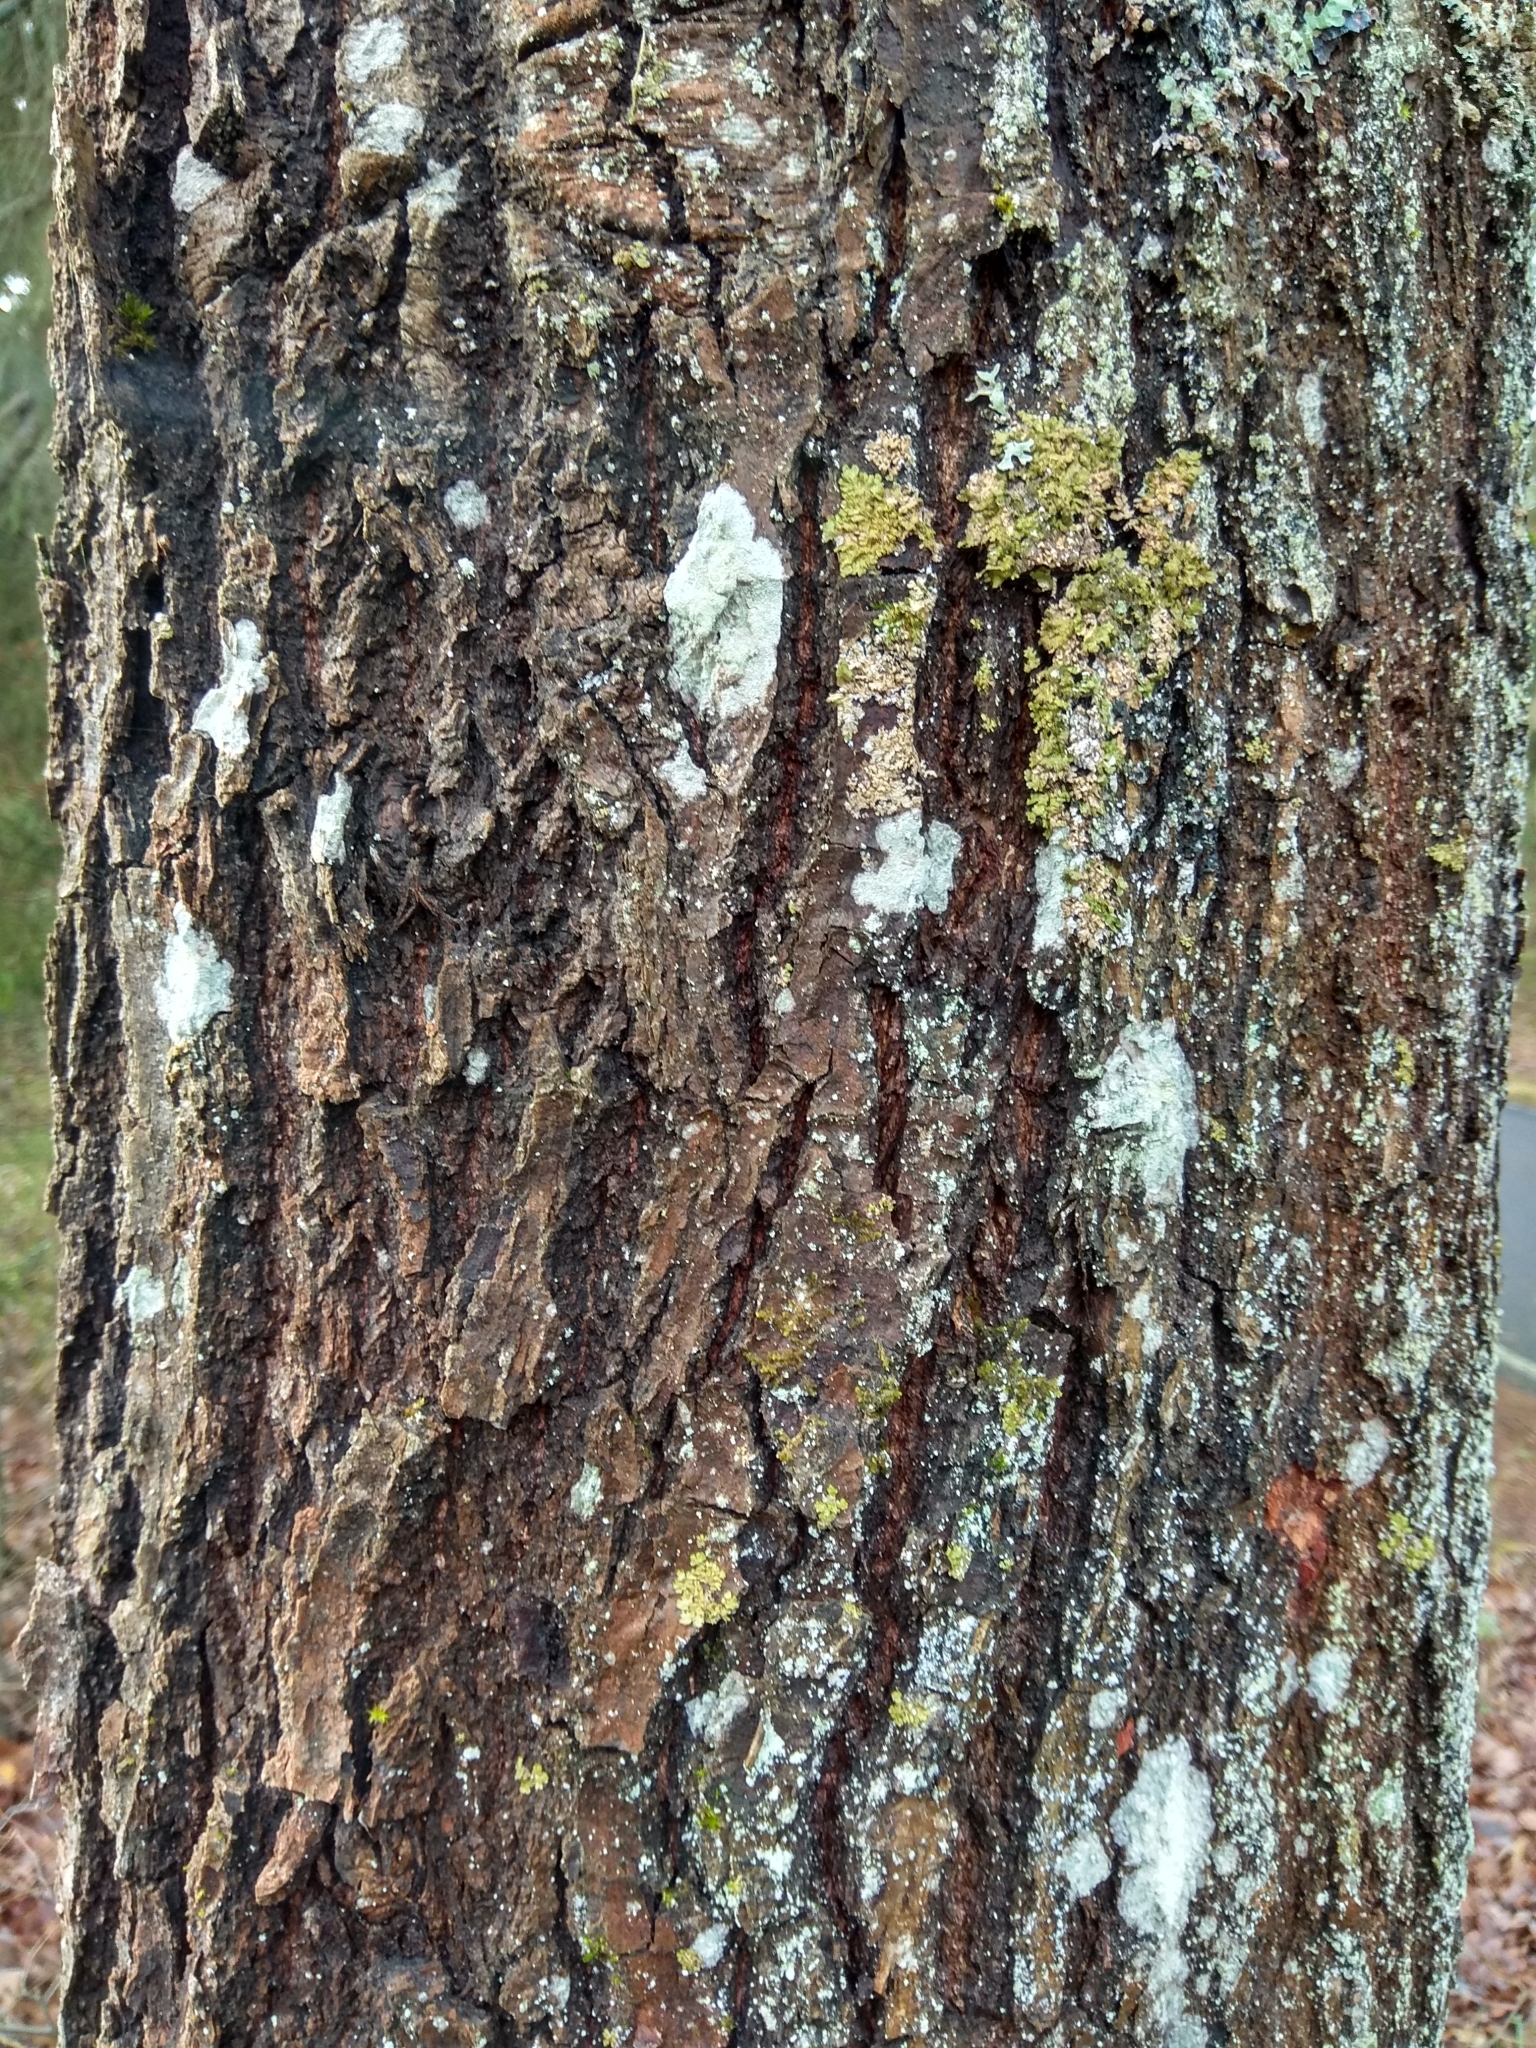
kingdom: Plantae
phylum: Tracheophyta
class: Magnoliopsida
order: Fagales
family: Fagaceae
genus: Quercus
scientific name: Quercus robur
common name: Pedunculate oak
